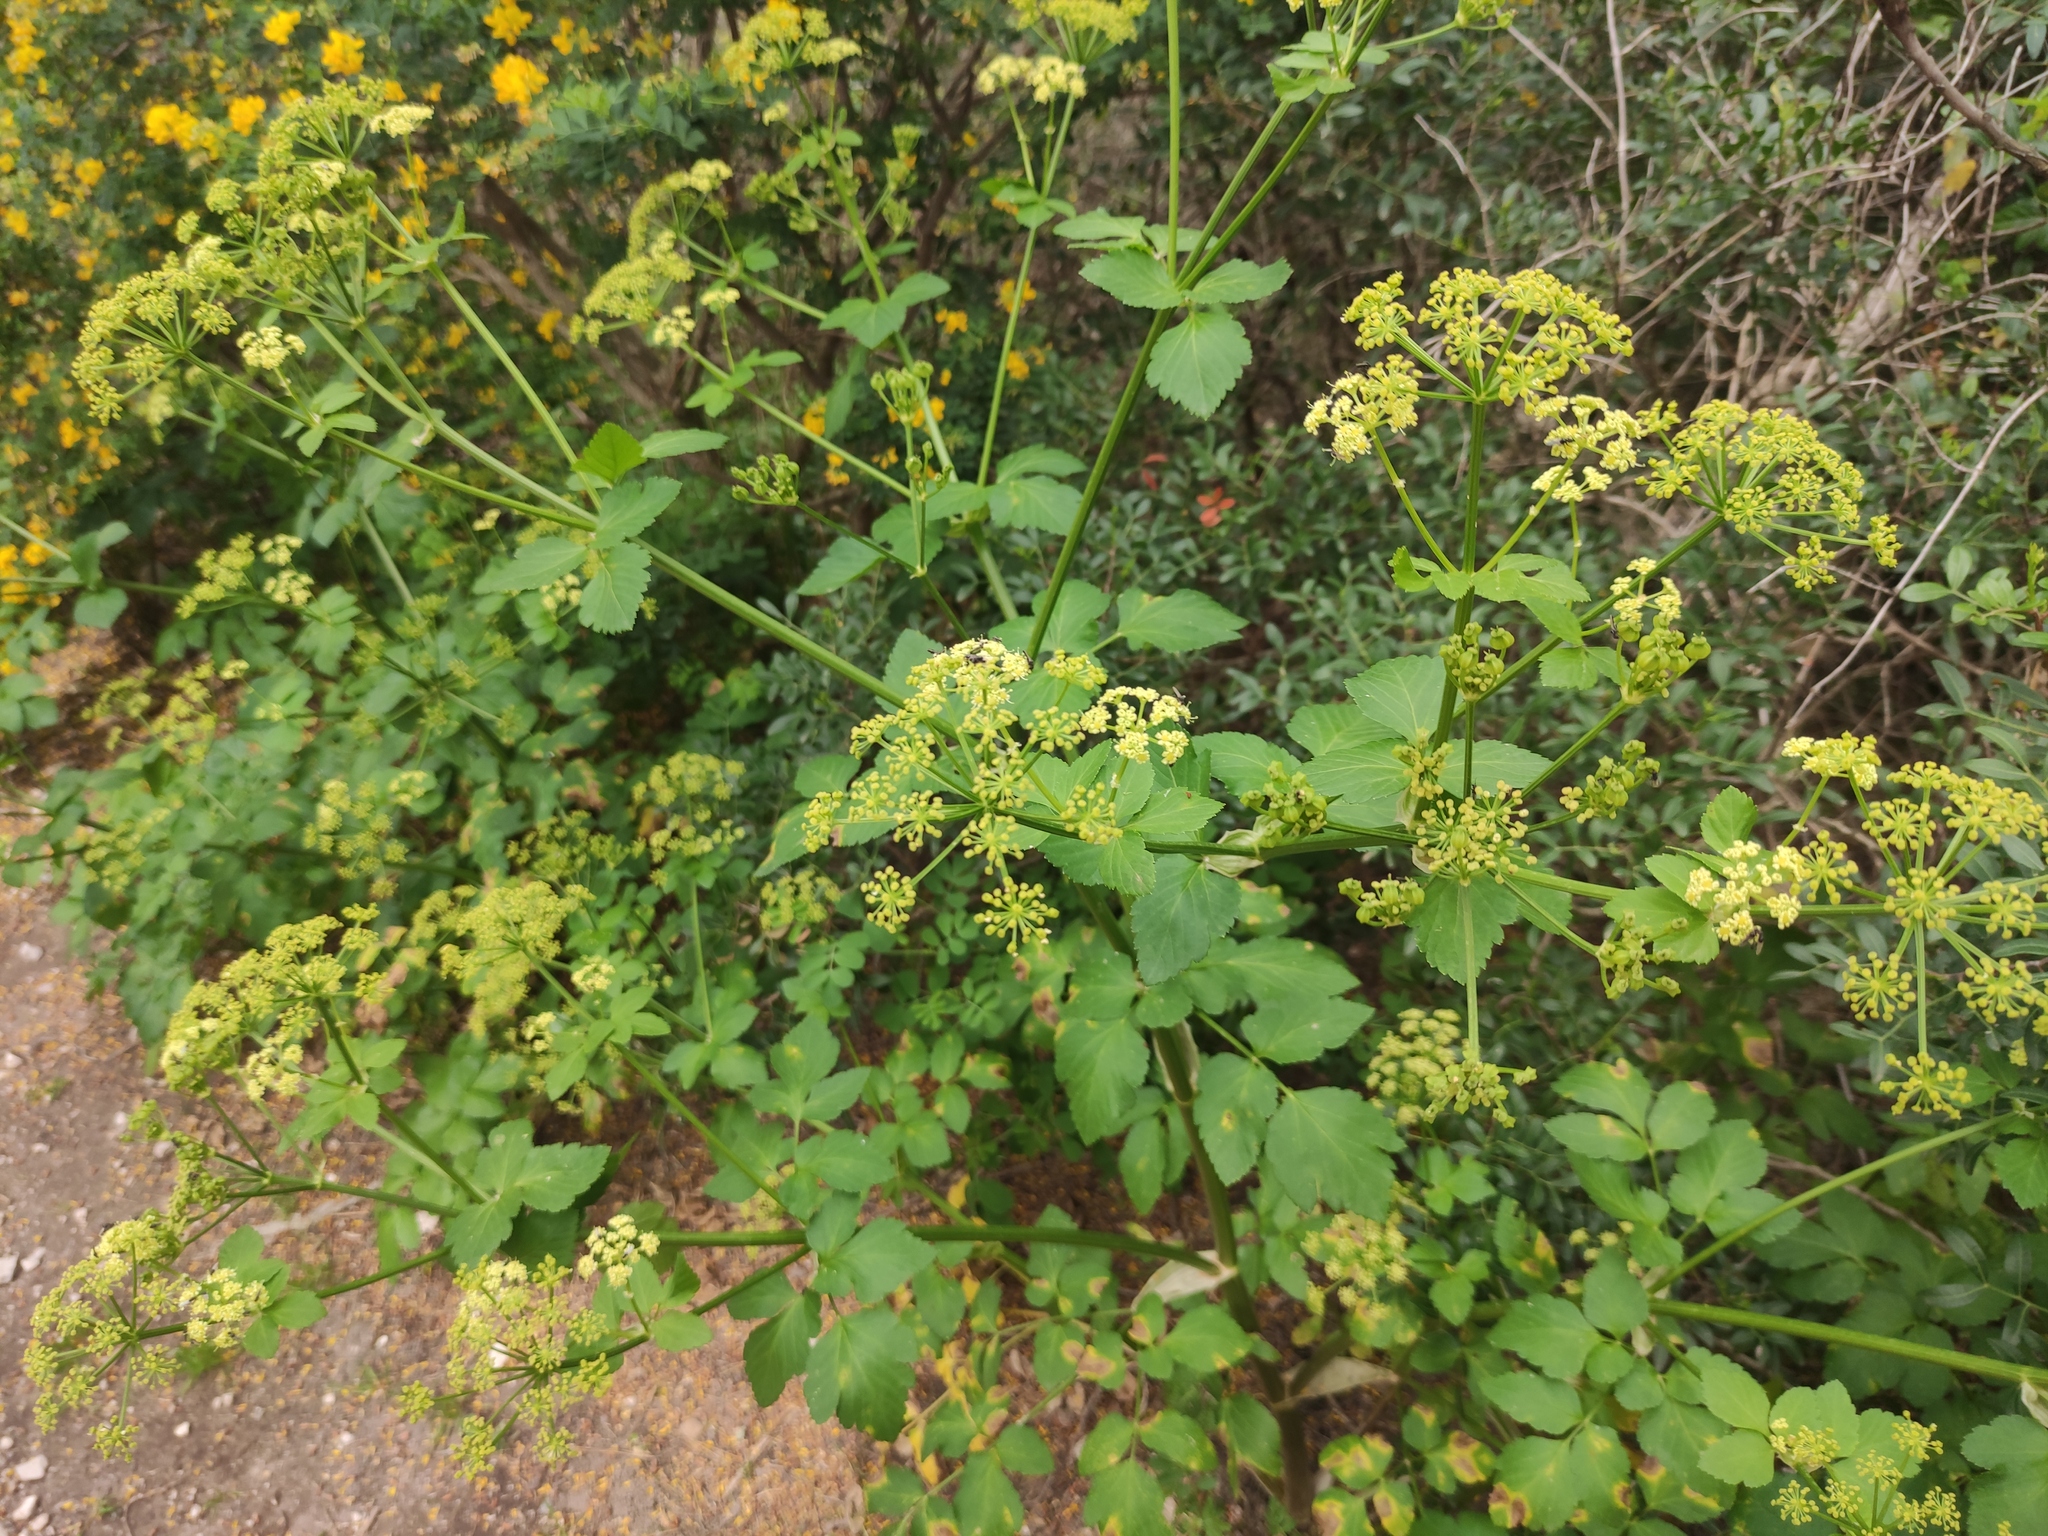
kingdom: Plantae
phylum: Tracheophyta
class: Magnoliopsida
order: Apiales
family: Apiaceae
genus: Smyrnium
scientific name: Smyrnium olusatrum
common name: Alexanders
